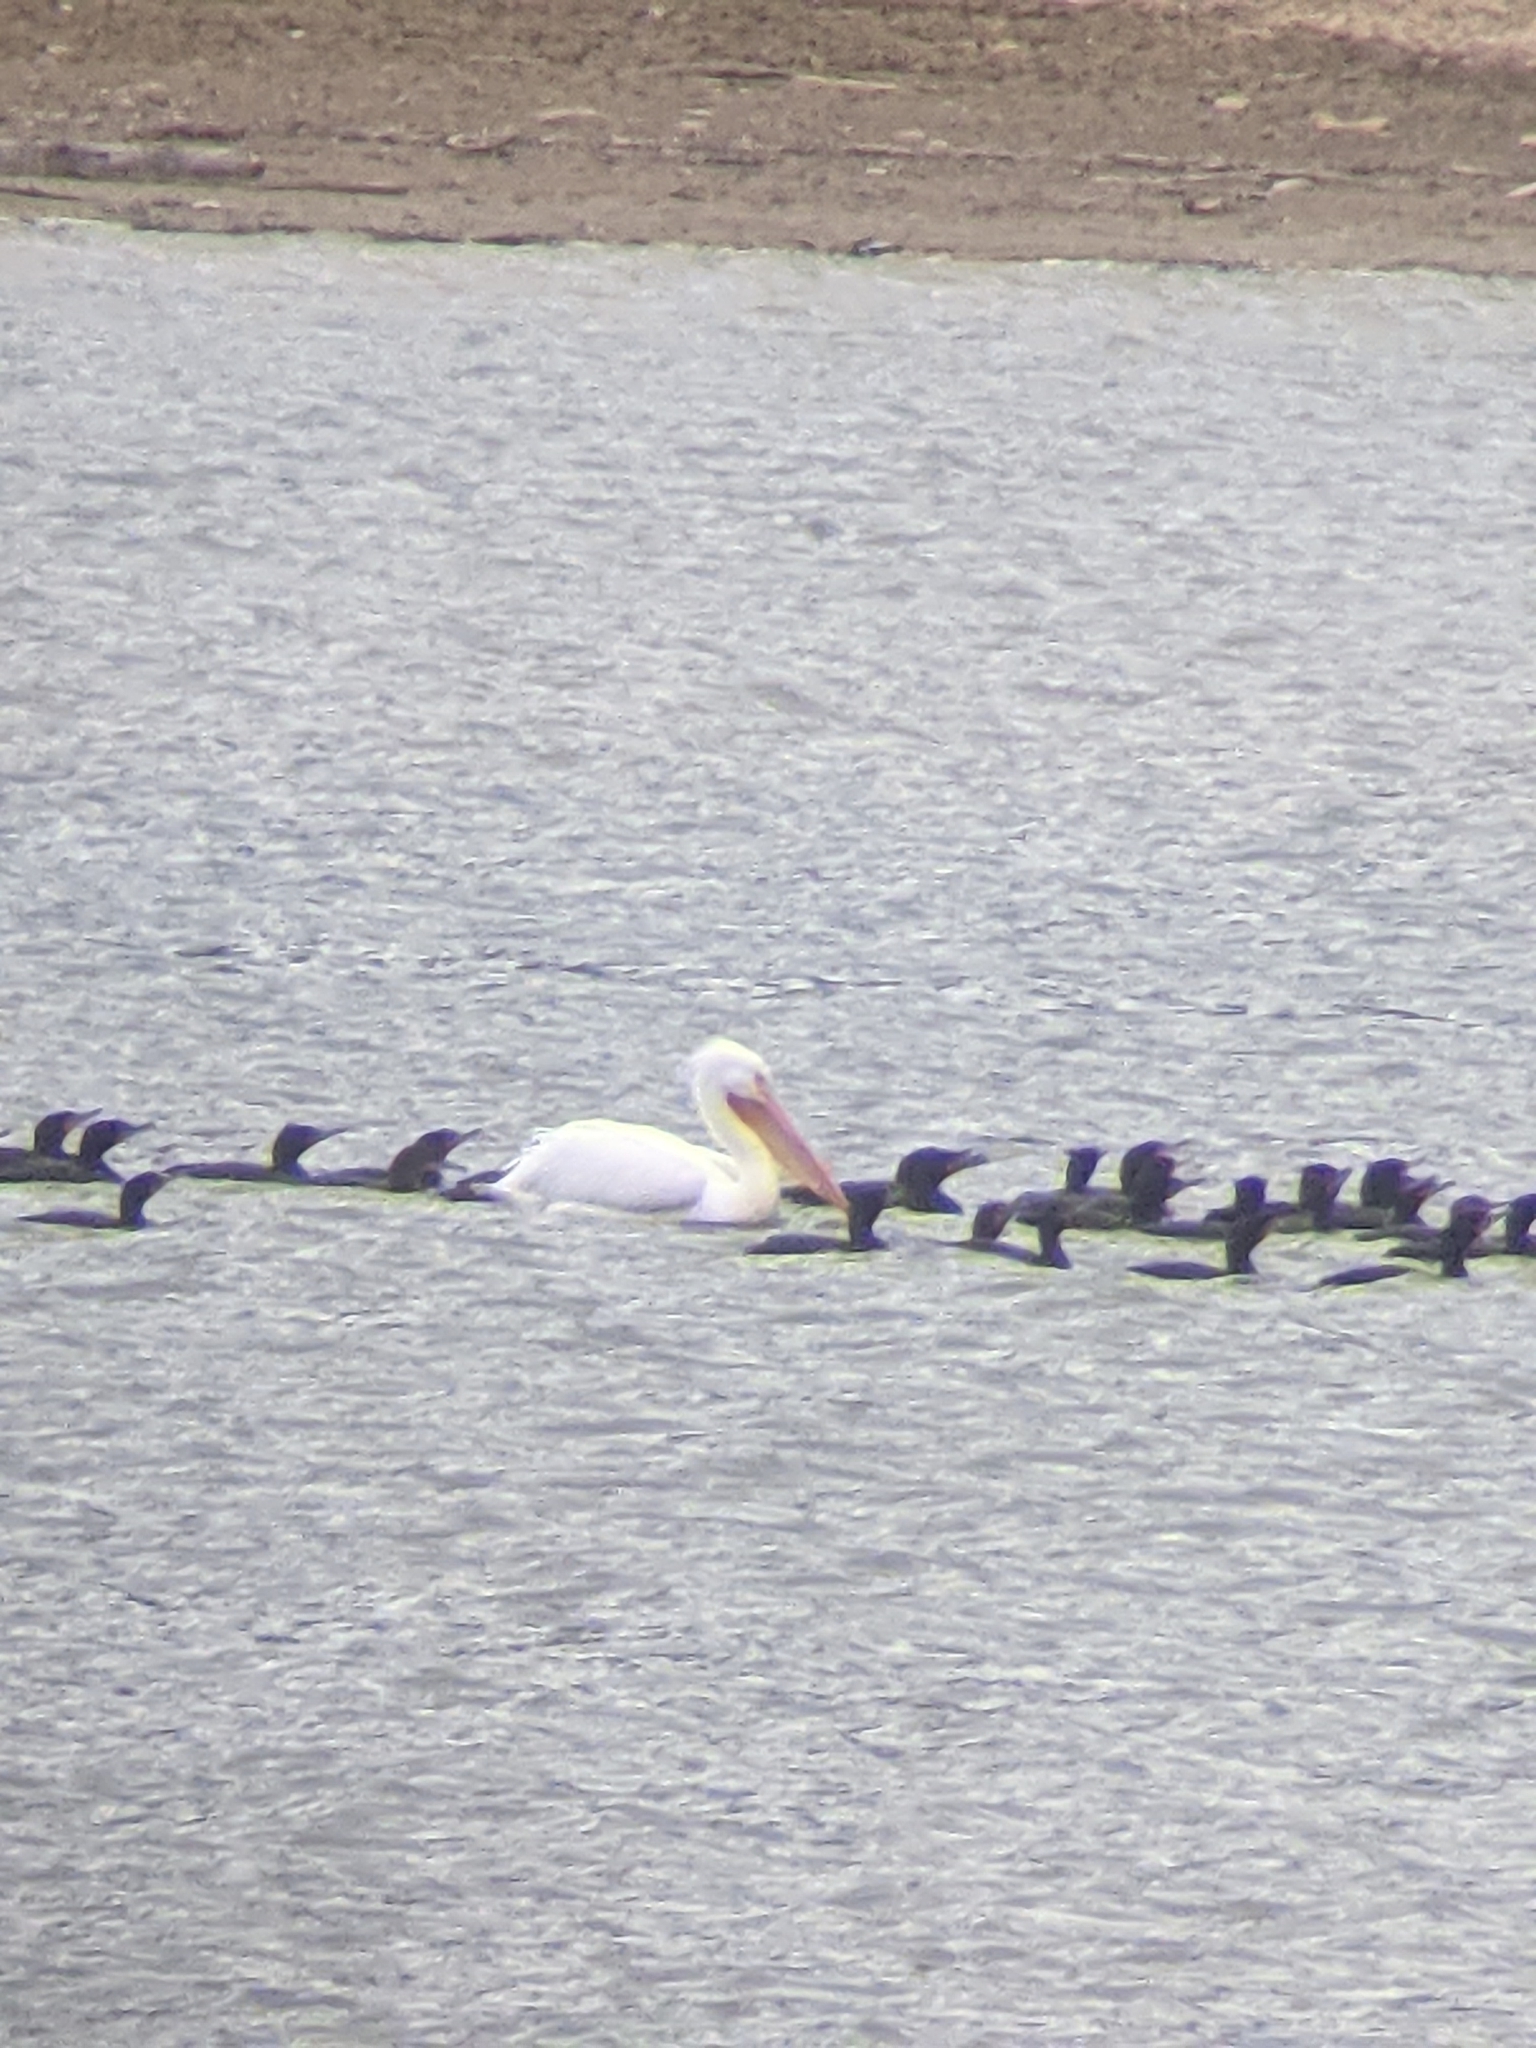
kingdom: Animalia
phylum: Chordata
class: Aves
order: Pelecaniformes
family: Pelecanidae
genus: Pelecanus
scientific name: Pelecanus erythrorhynchos
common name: American white pelican
